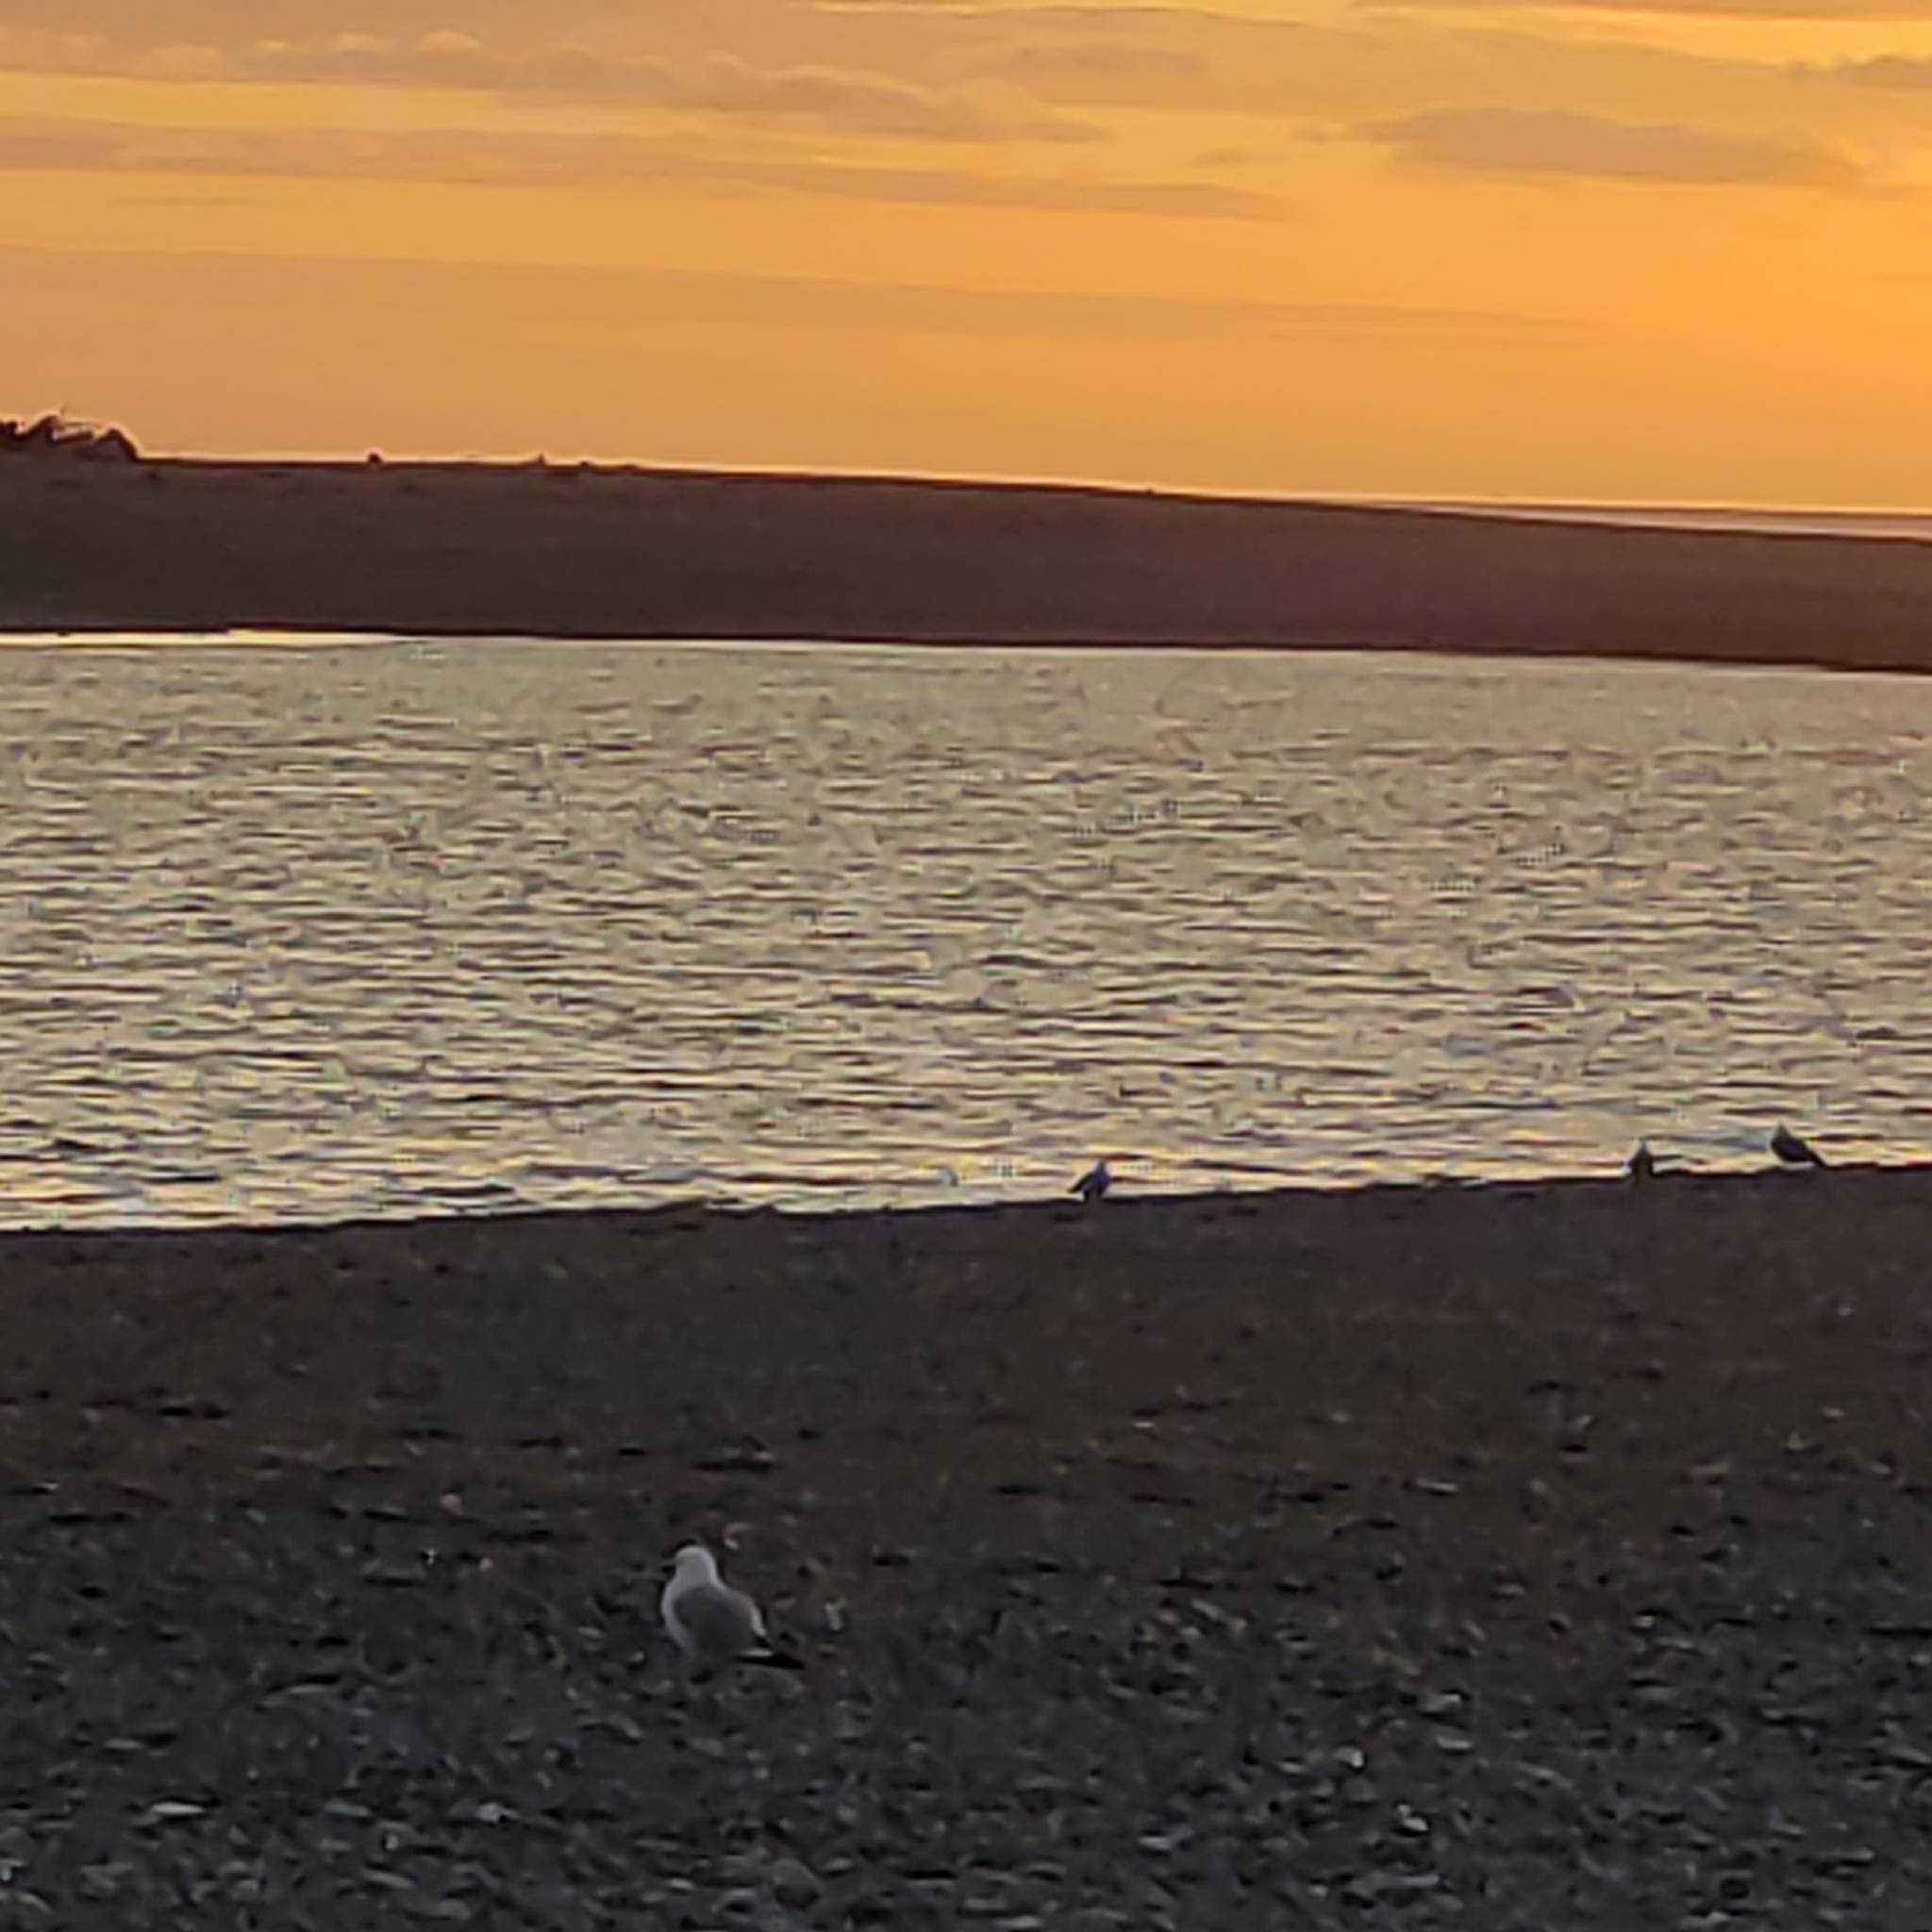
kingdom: Animalia
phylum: Chordata
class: Aves
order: Charadriiformes
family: Laridae
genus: Chroicocephalus
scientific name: Chroicocephalus novaehollandiae
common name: Silver gull
